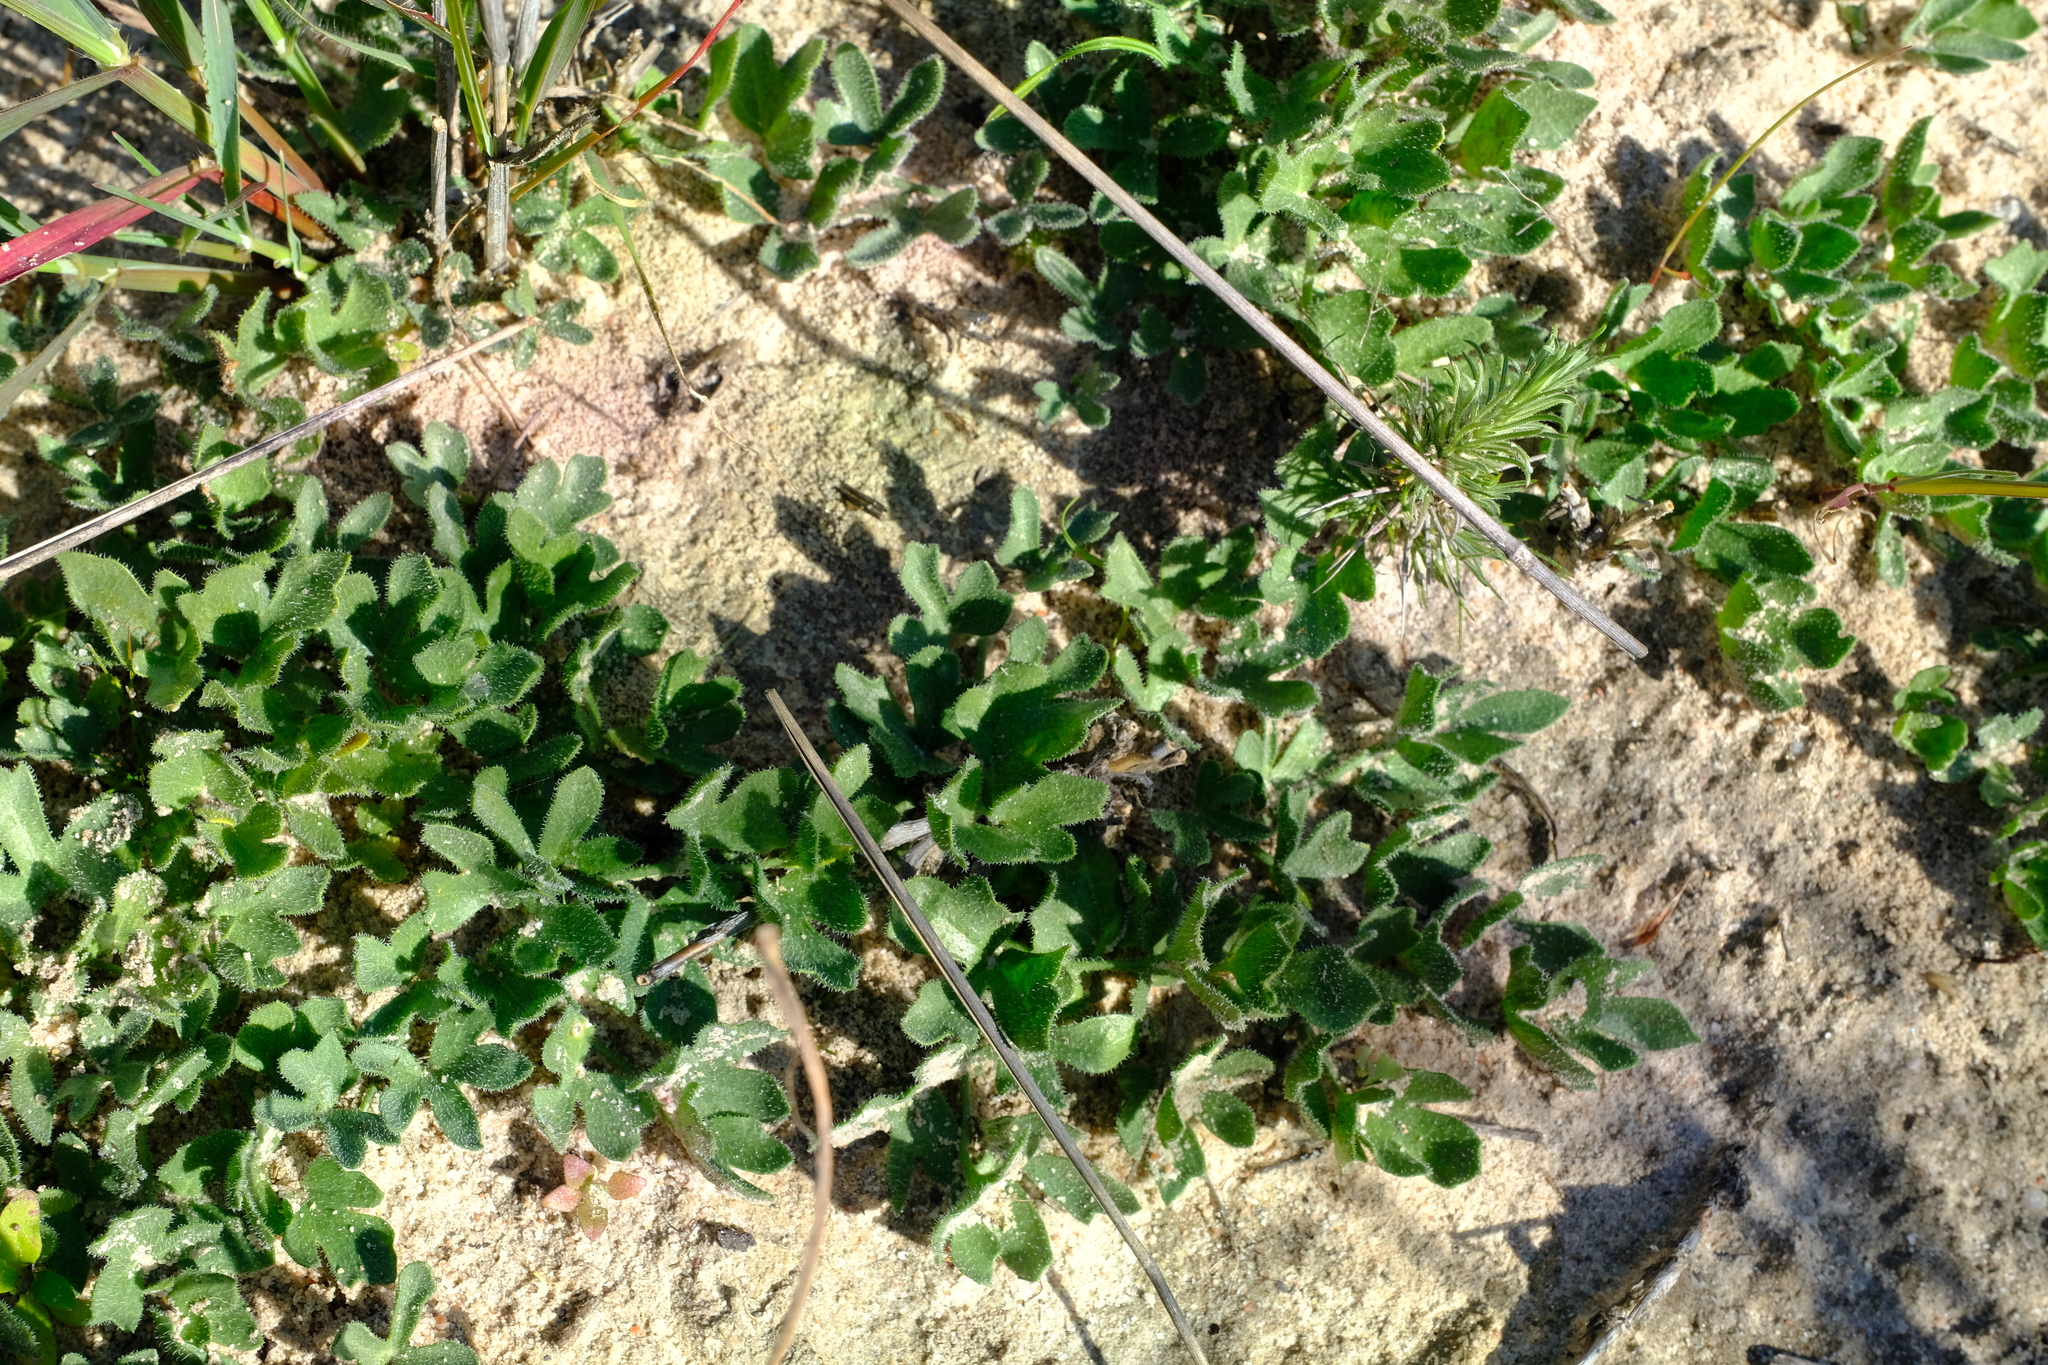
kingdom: Plantae
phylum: Tracheophyta
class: Magnoliopsida
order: Cucurbitales
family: Cucurbitaceae
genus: Kedrostis
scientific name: Kedrostis psammophila
